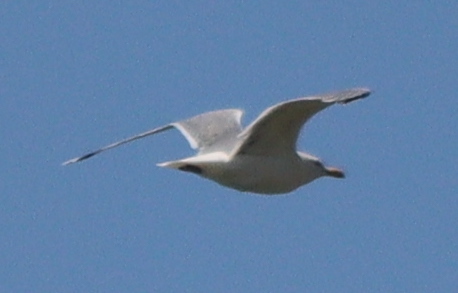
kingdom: Animalia
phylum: Chordata
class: Aves
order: Charadriiformes
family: Laridae
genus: Larus
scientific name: Larus argentatus
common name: Herring gull
